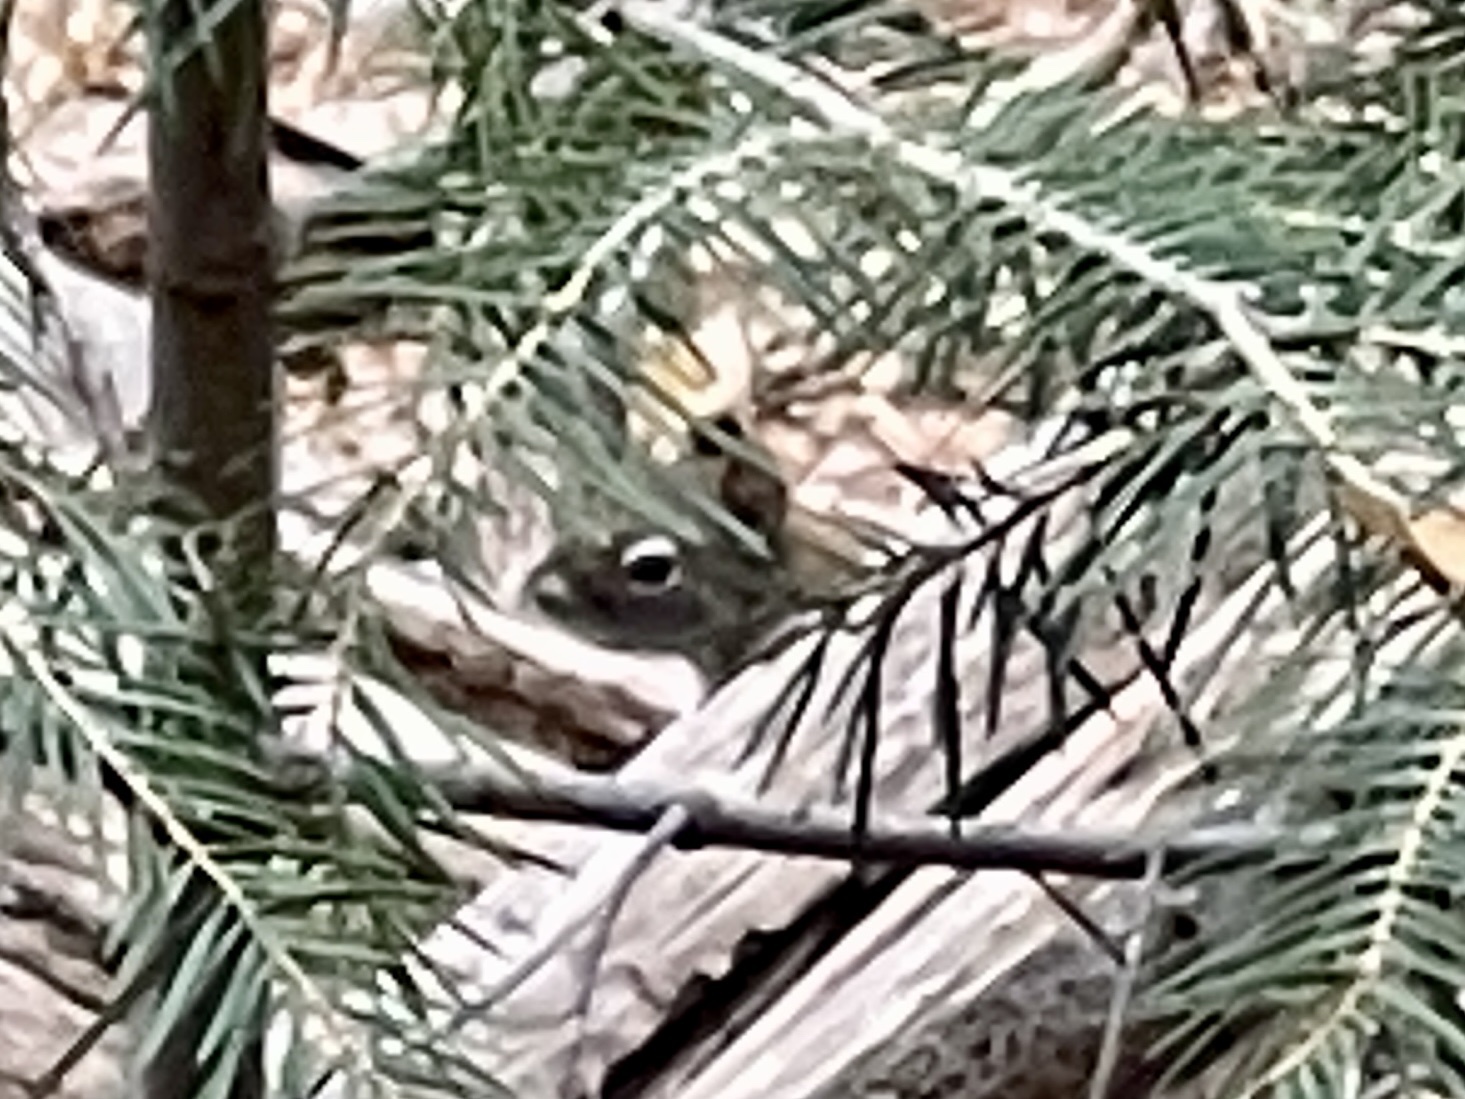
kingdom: Animalia
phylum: Chordata
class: Mammalia
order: Rodentia
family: Sciuridae
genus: Tamiasciurus
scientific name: Tamiasciurus hudsonicus
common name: Red squirrel
